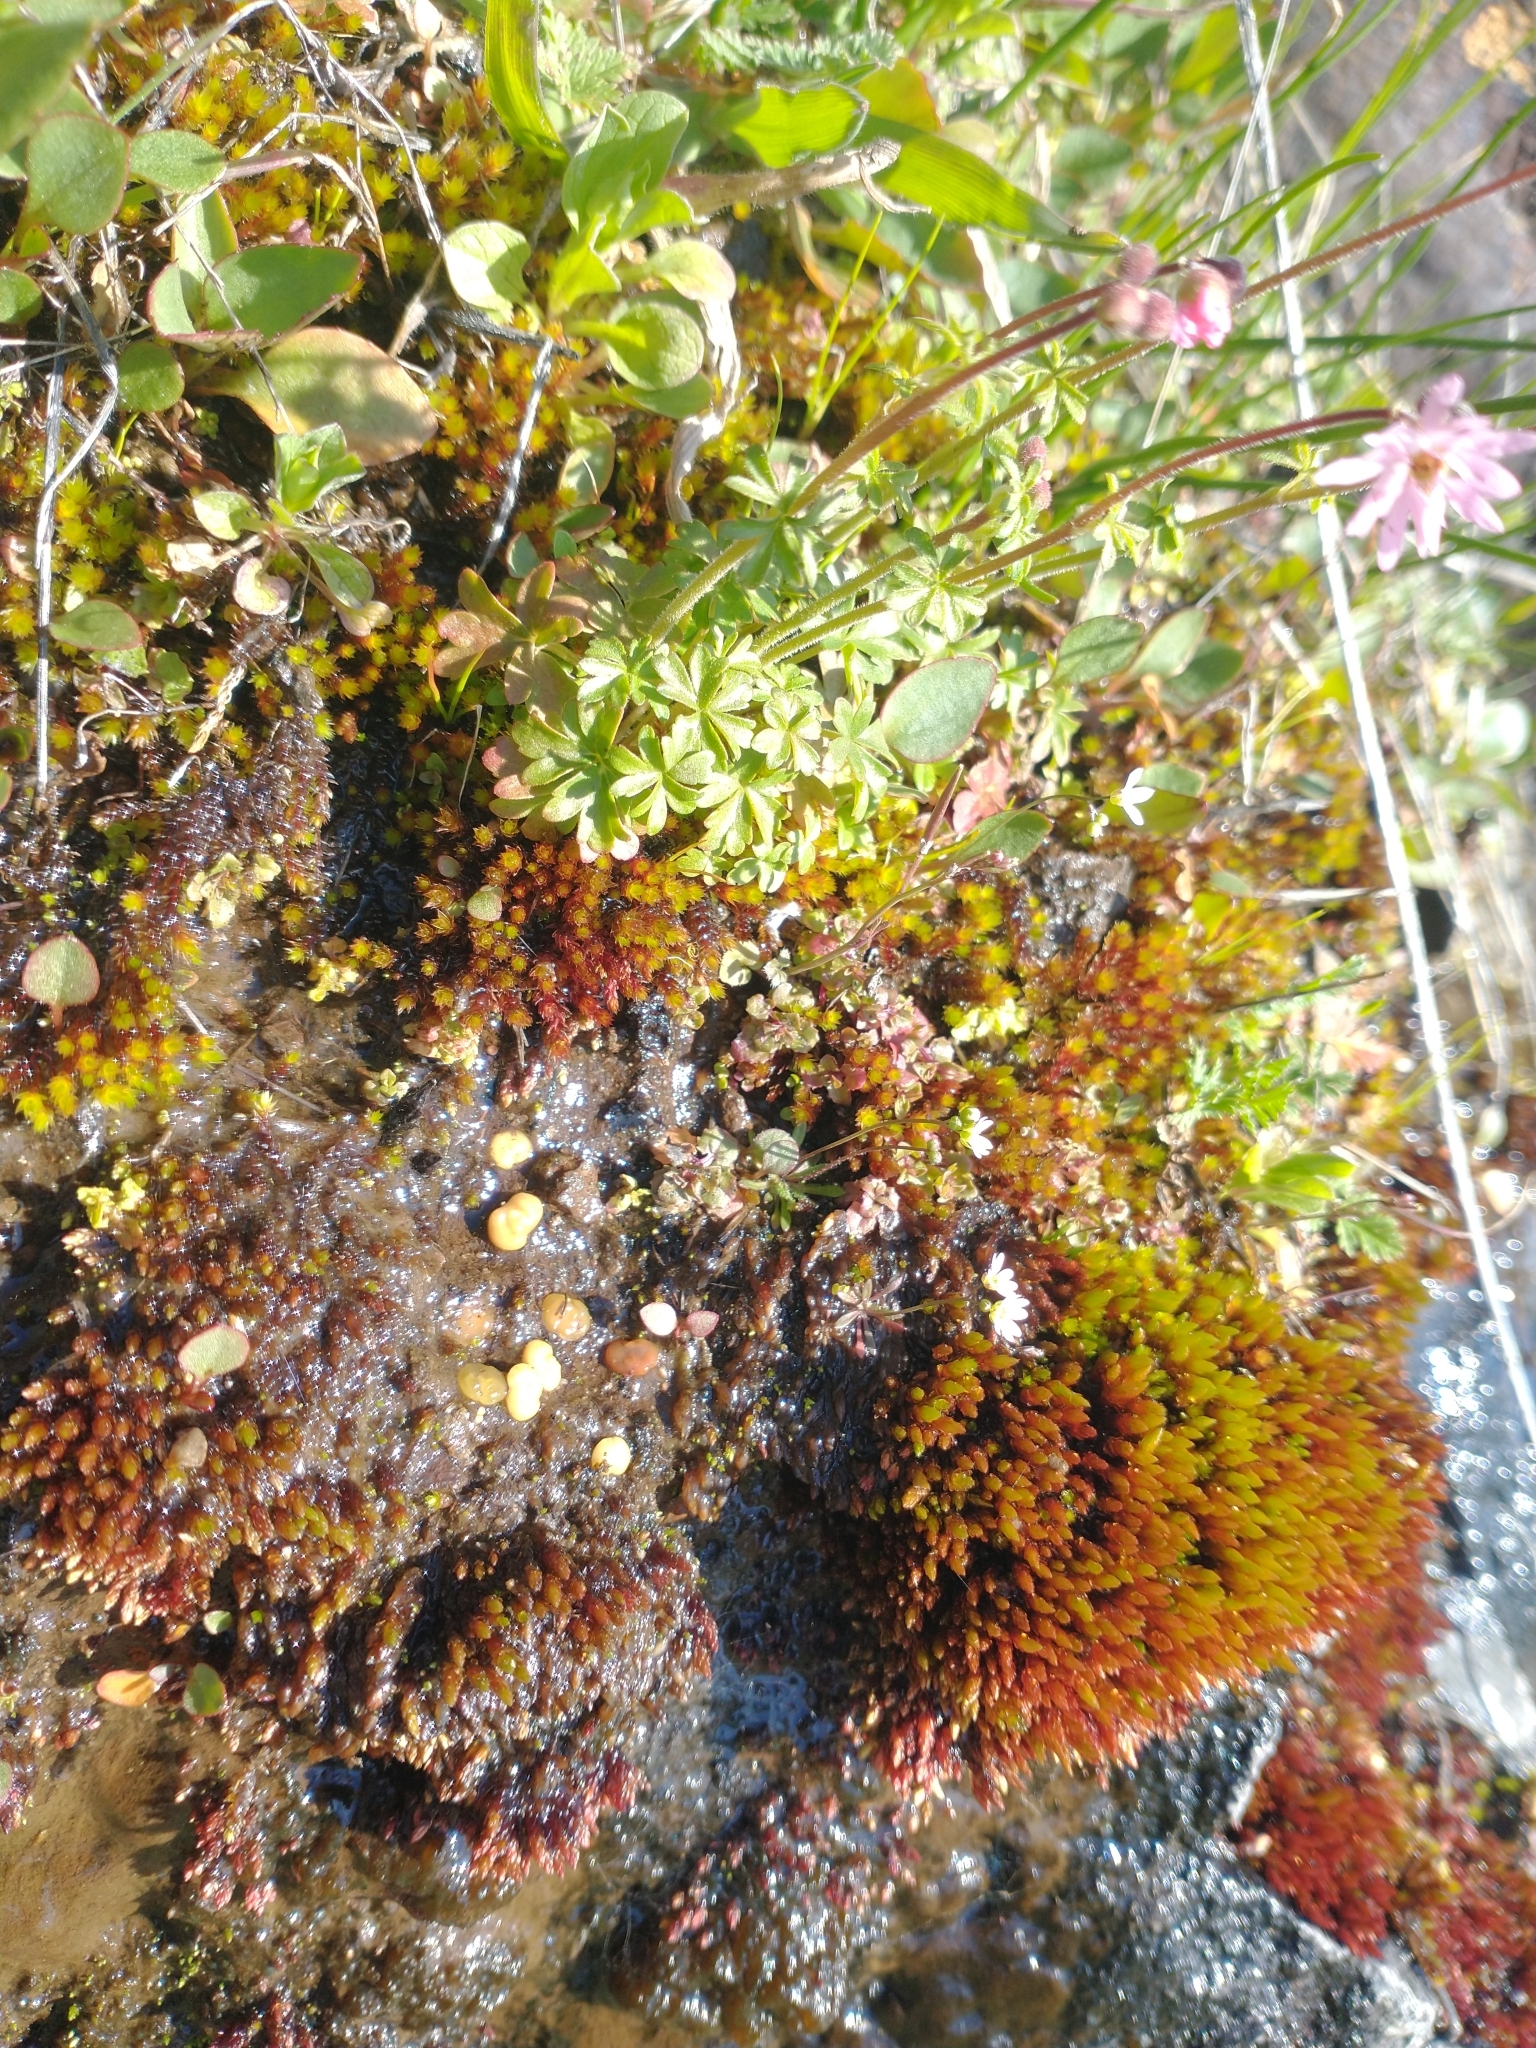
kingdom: Plantae
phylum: Tracheophyta
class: Magnoliopsida
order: Saxifragales
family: Saxifragaceae
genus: Lithophragma
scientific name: Lithophragma glabrum
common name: Bulbous prairie-star
